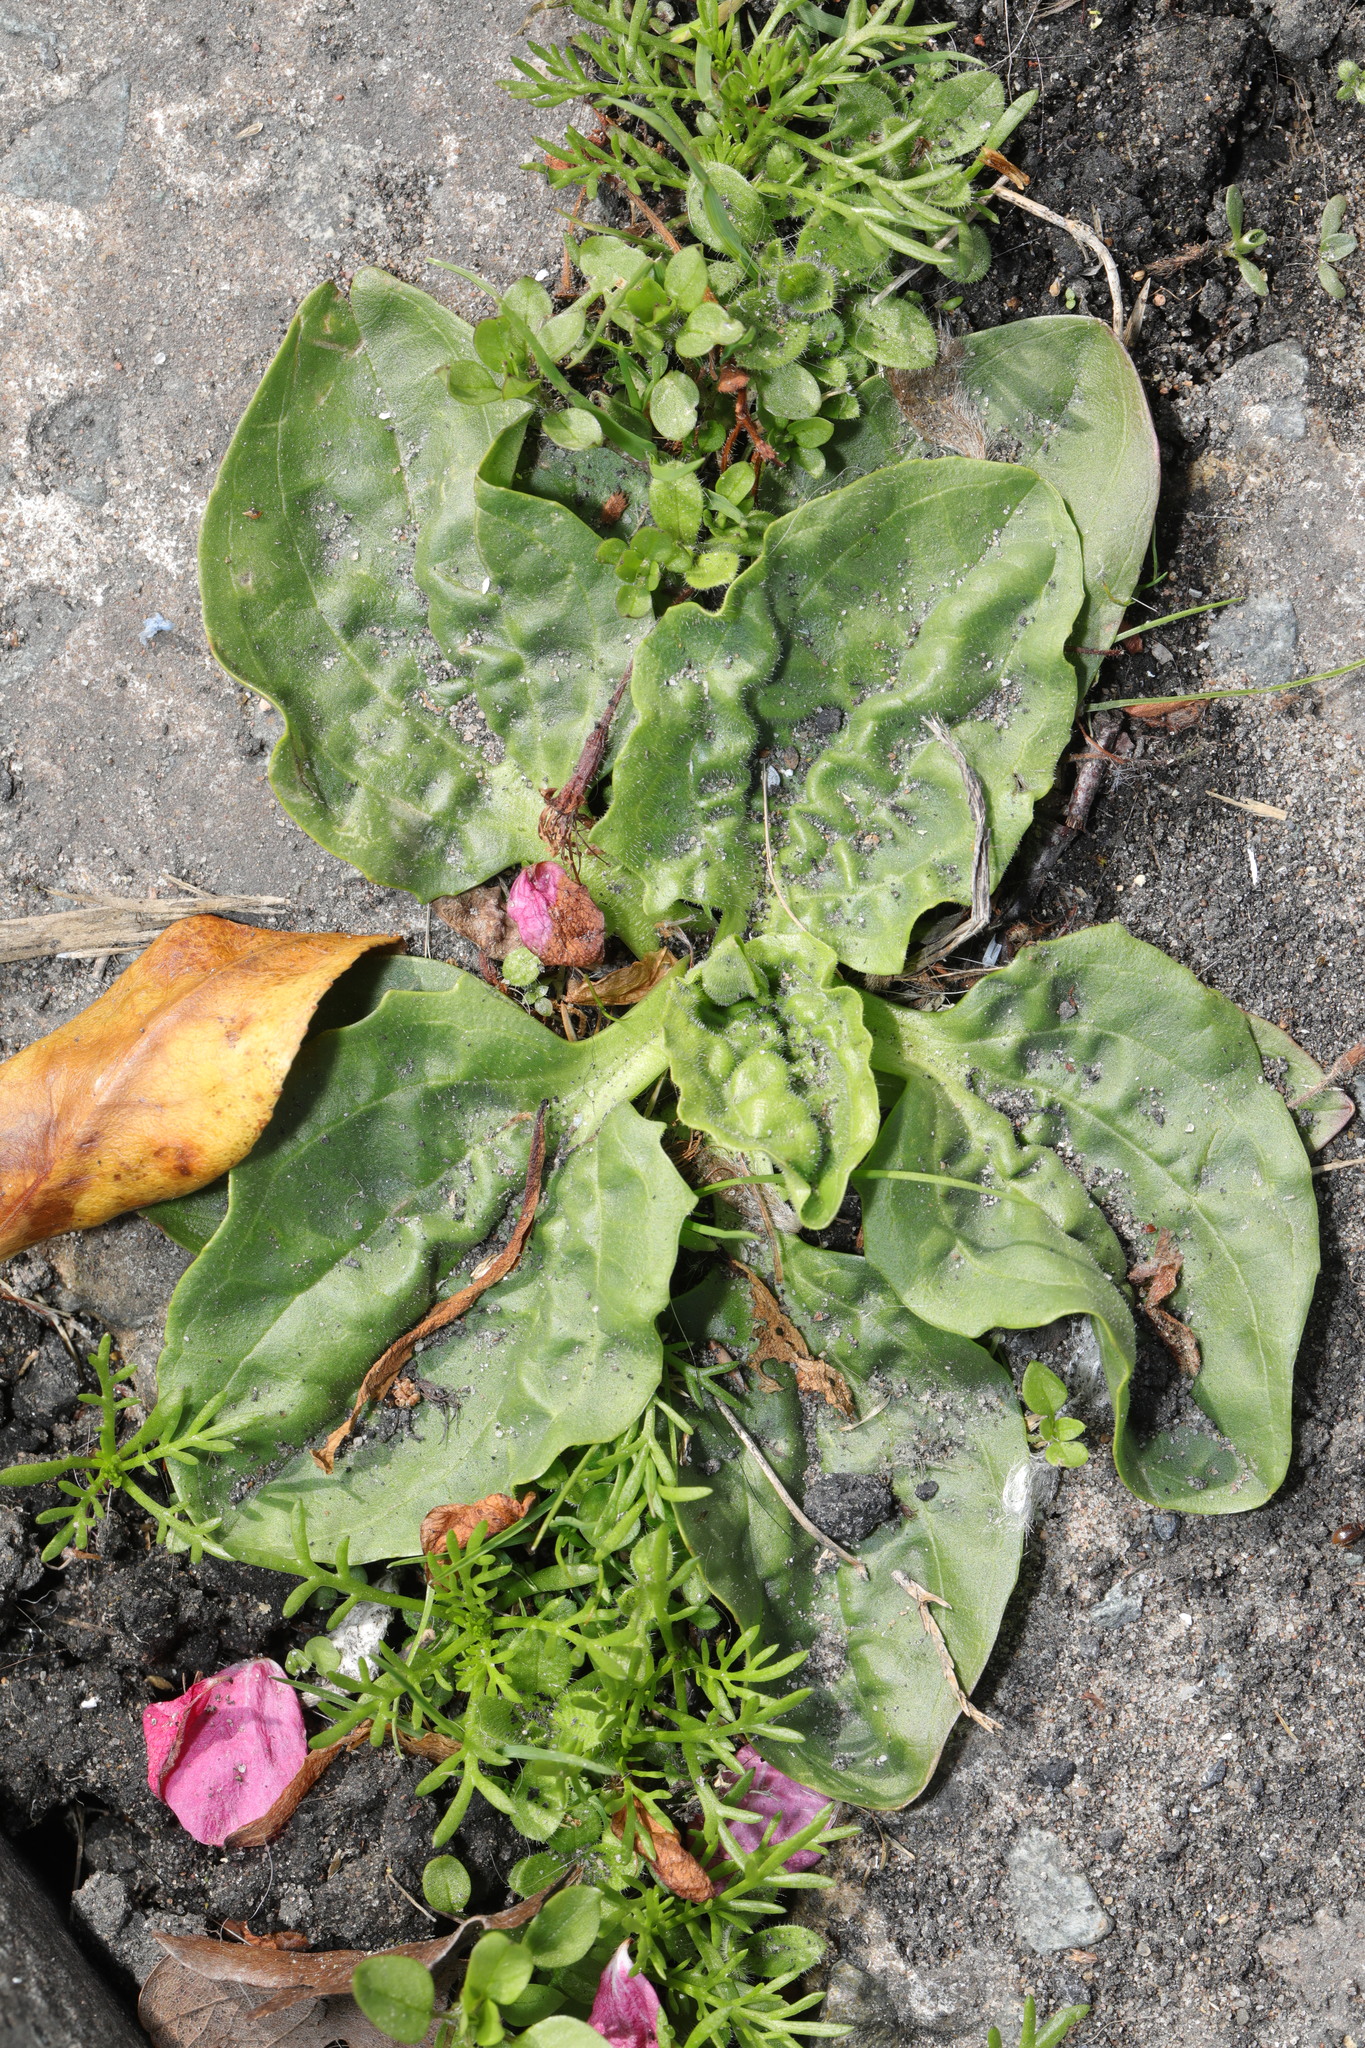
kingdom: Plantae
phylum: Tracheophyta
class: Magnoliopsida
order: Lamiales
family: Plantaginaceae
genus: Plantago
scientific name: Plantago major
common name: Common plantain
